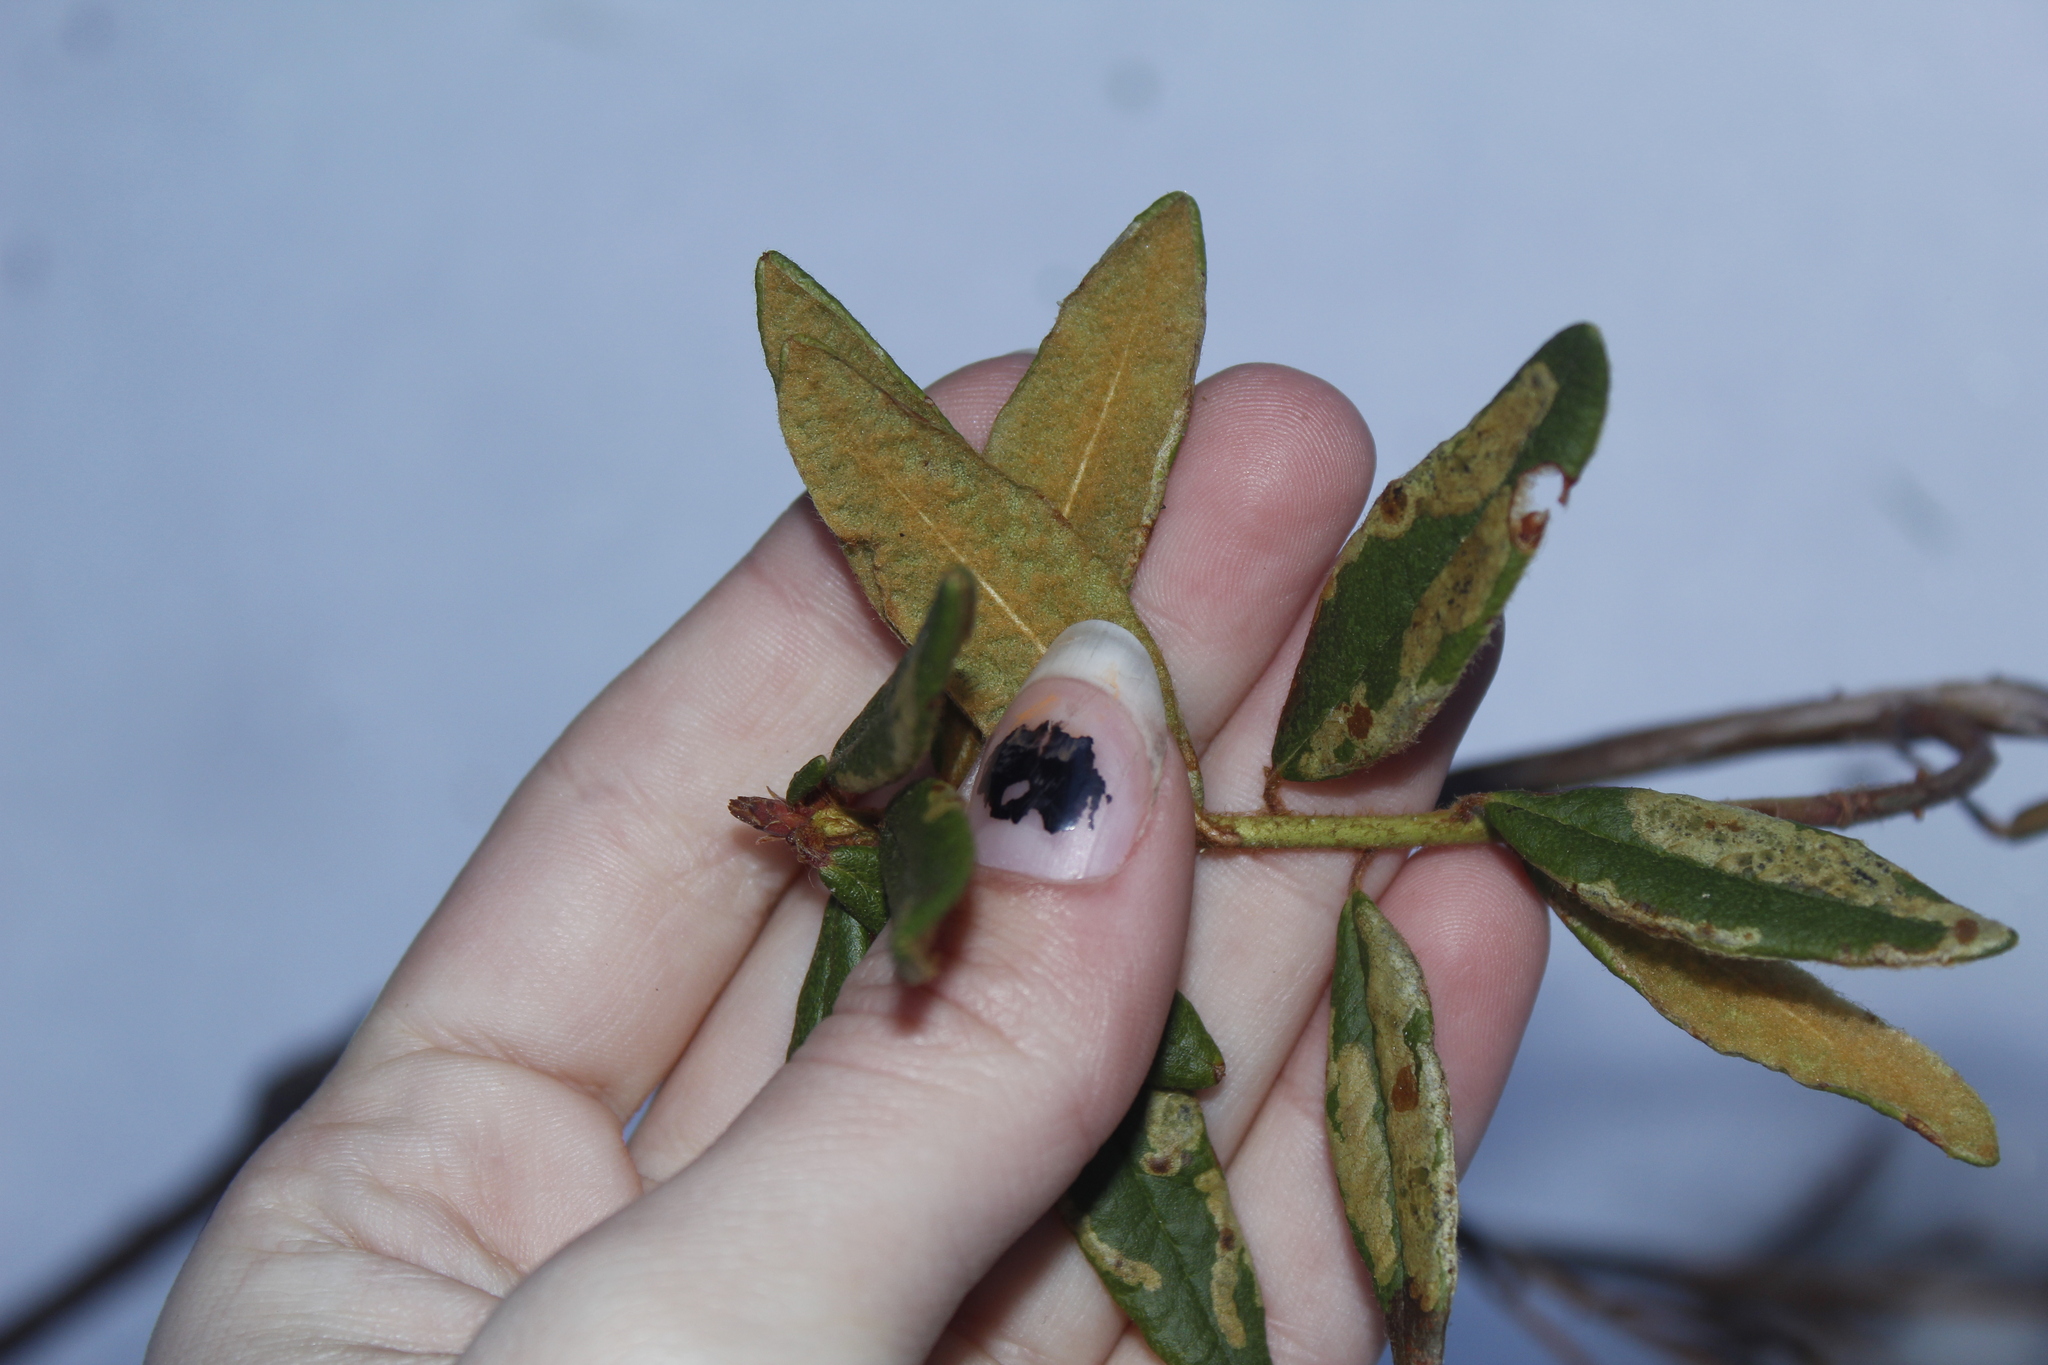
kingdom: Plantae
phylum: Tracheophyta
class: Magnoliopsida
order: Ericales
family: Ericaceae
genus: Rhododendron
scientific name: Rhododendron groenlandicum
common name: Bog labrador tea
